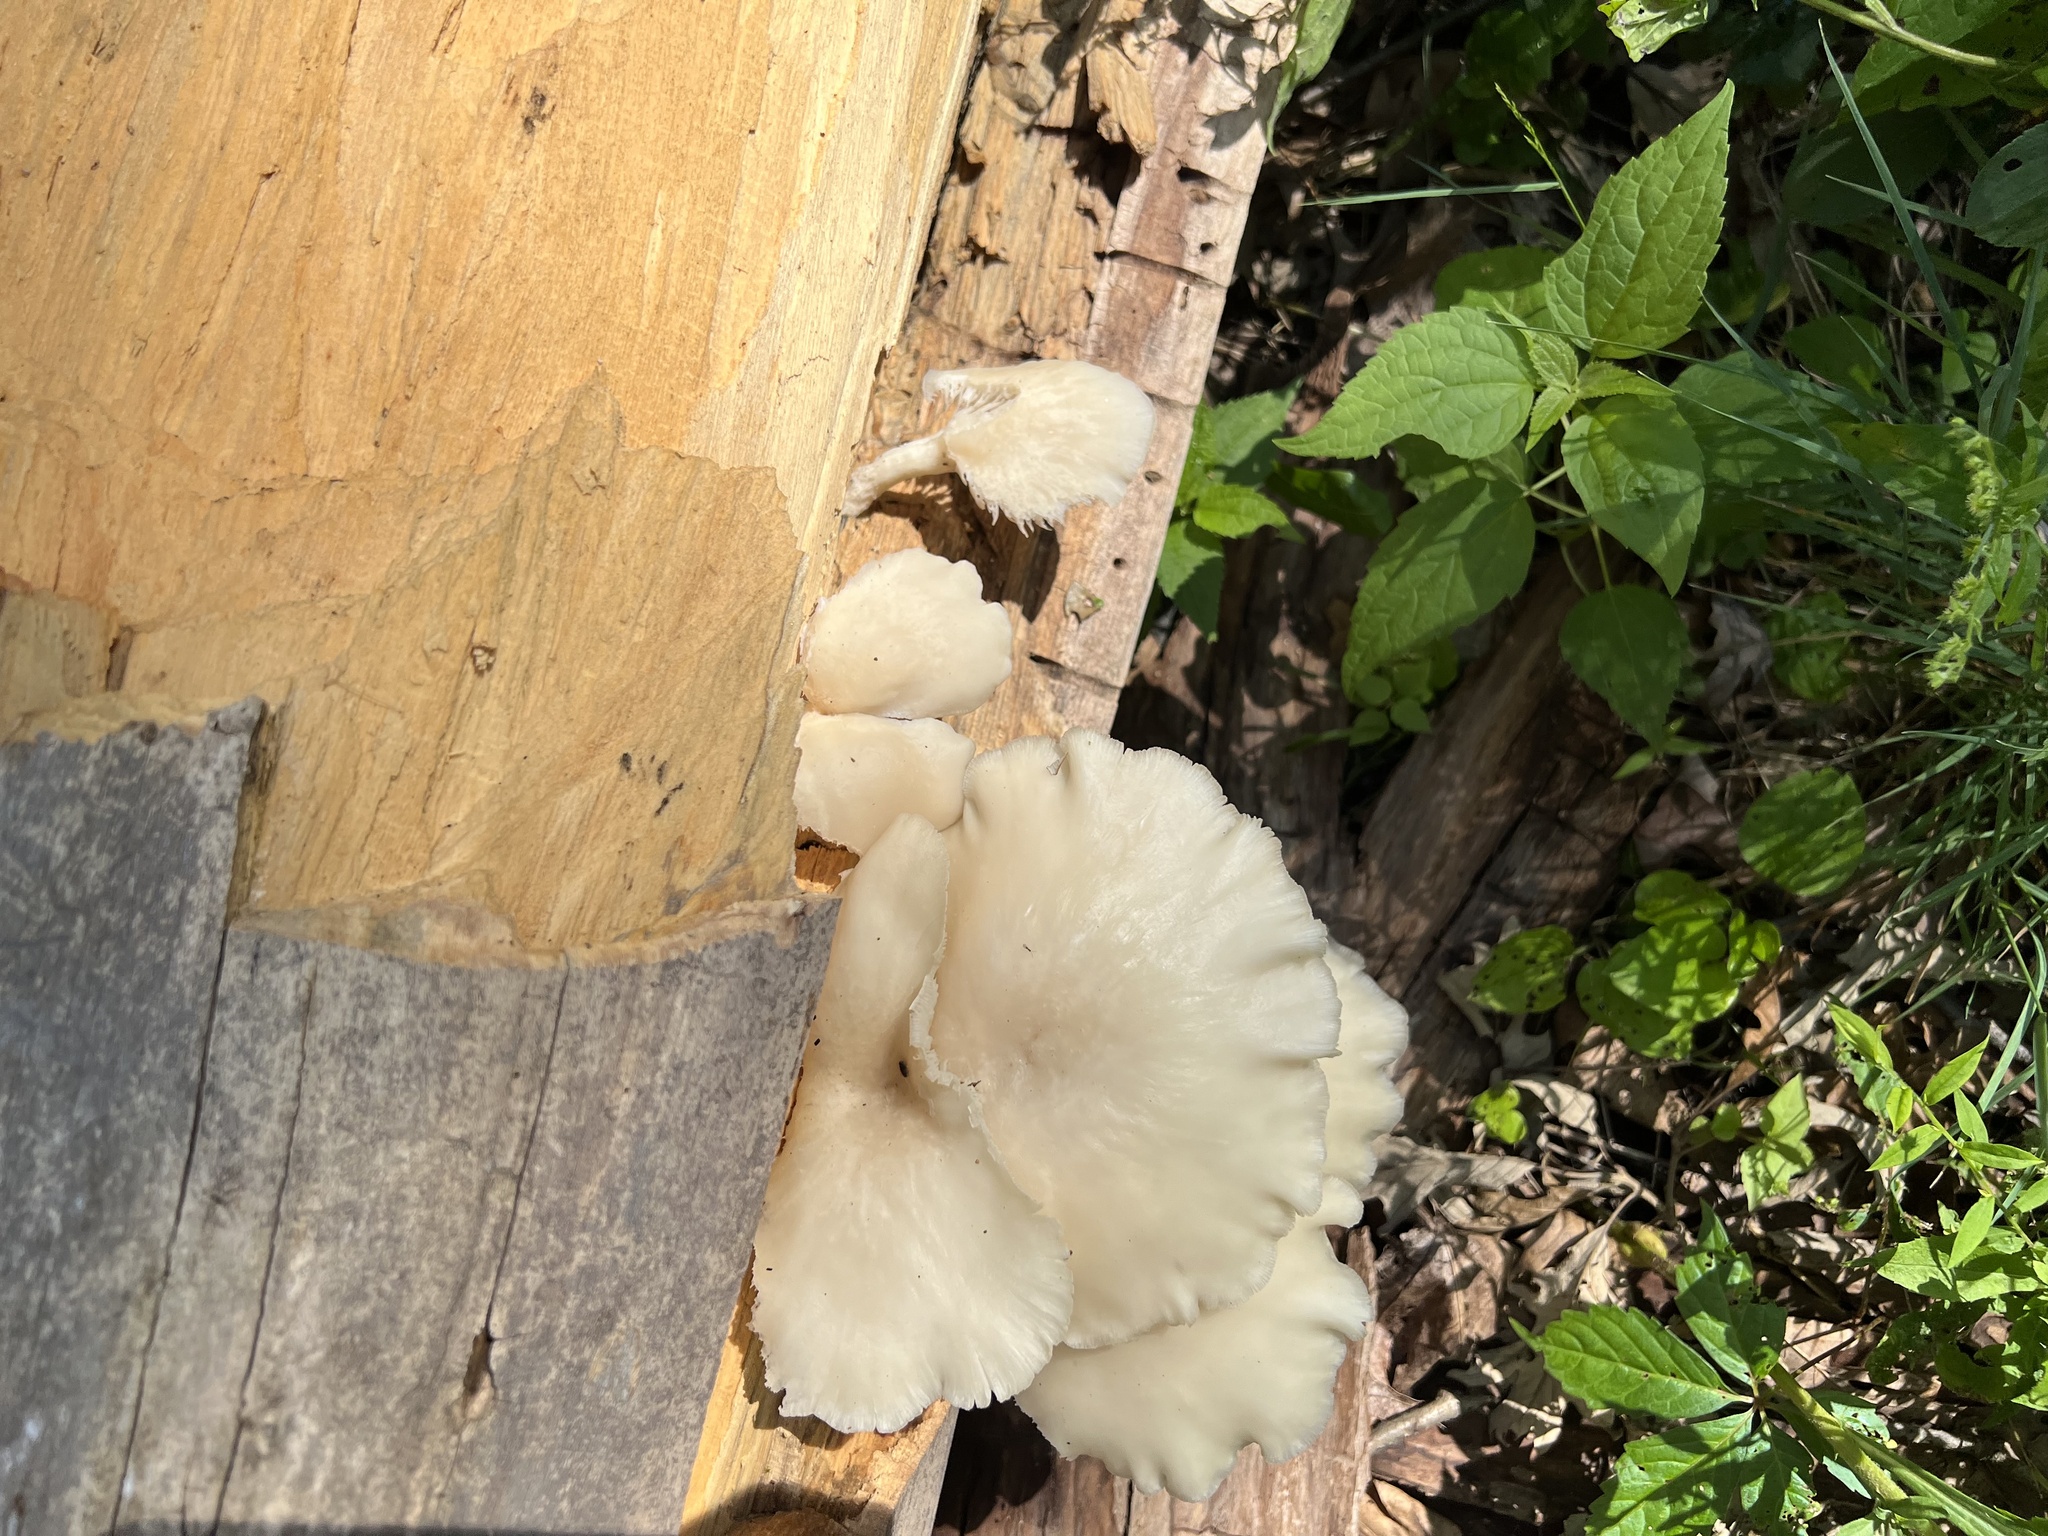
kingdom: Fungi
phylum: Basidiomycota
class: Agaricomycetes
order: Agaricales
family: Pleurotaceae
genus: Pleurotus
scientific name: Pleurotus pulmonarius
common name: Pale oyster
